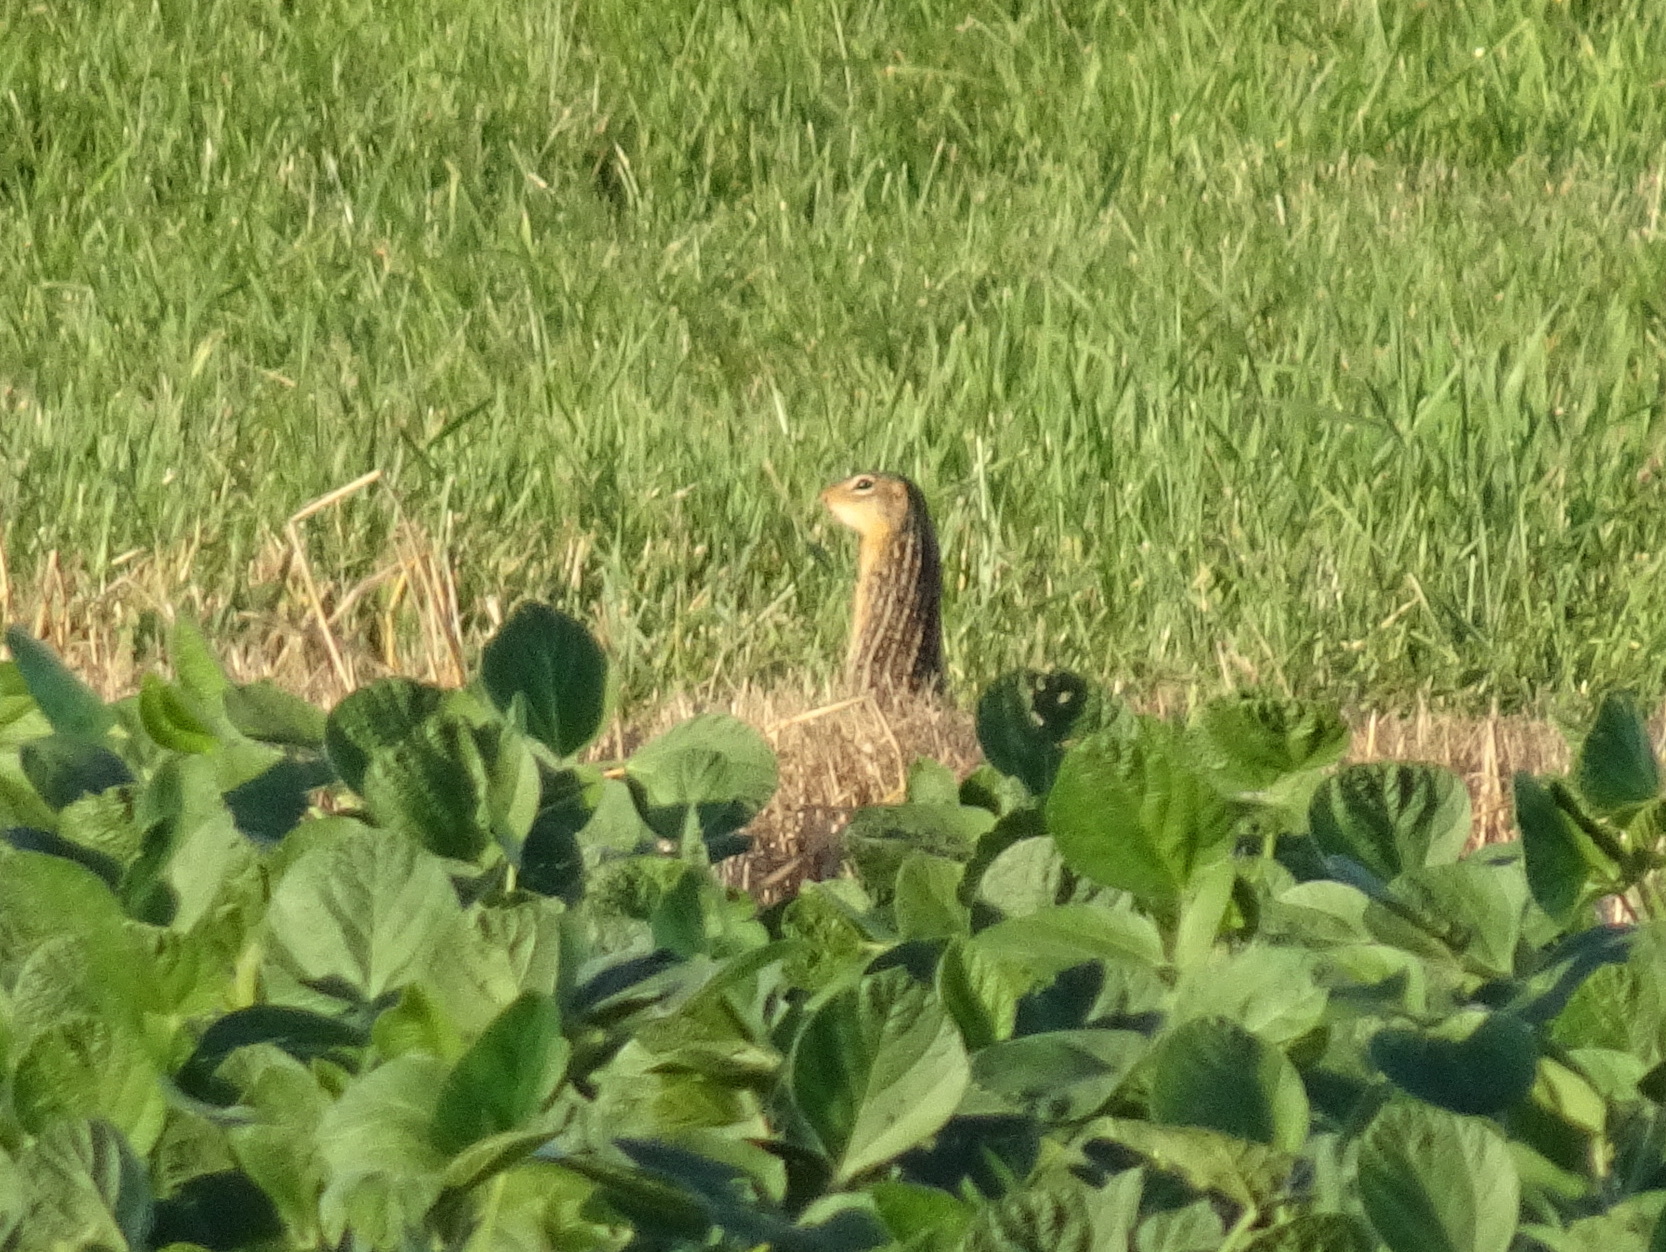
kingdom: Animalia
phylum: Chordata
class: Mammalia
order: Rodentia
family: Sciuridae
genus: Ictidomys
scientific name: Ictidomys tridecemlineatus
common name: Thirteen-lined ground squirrel
